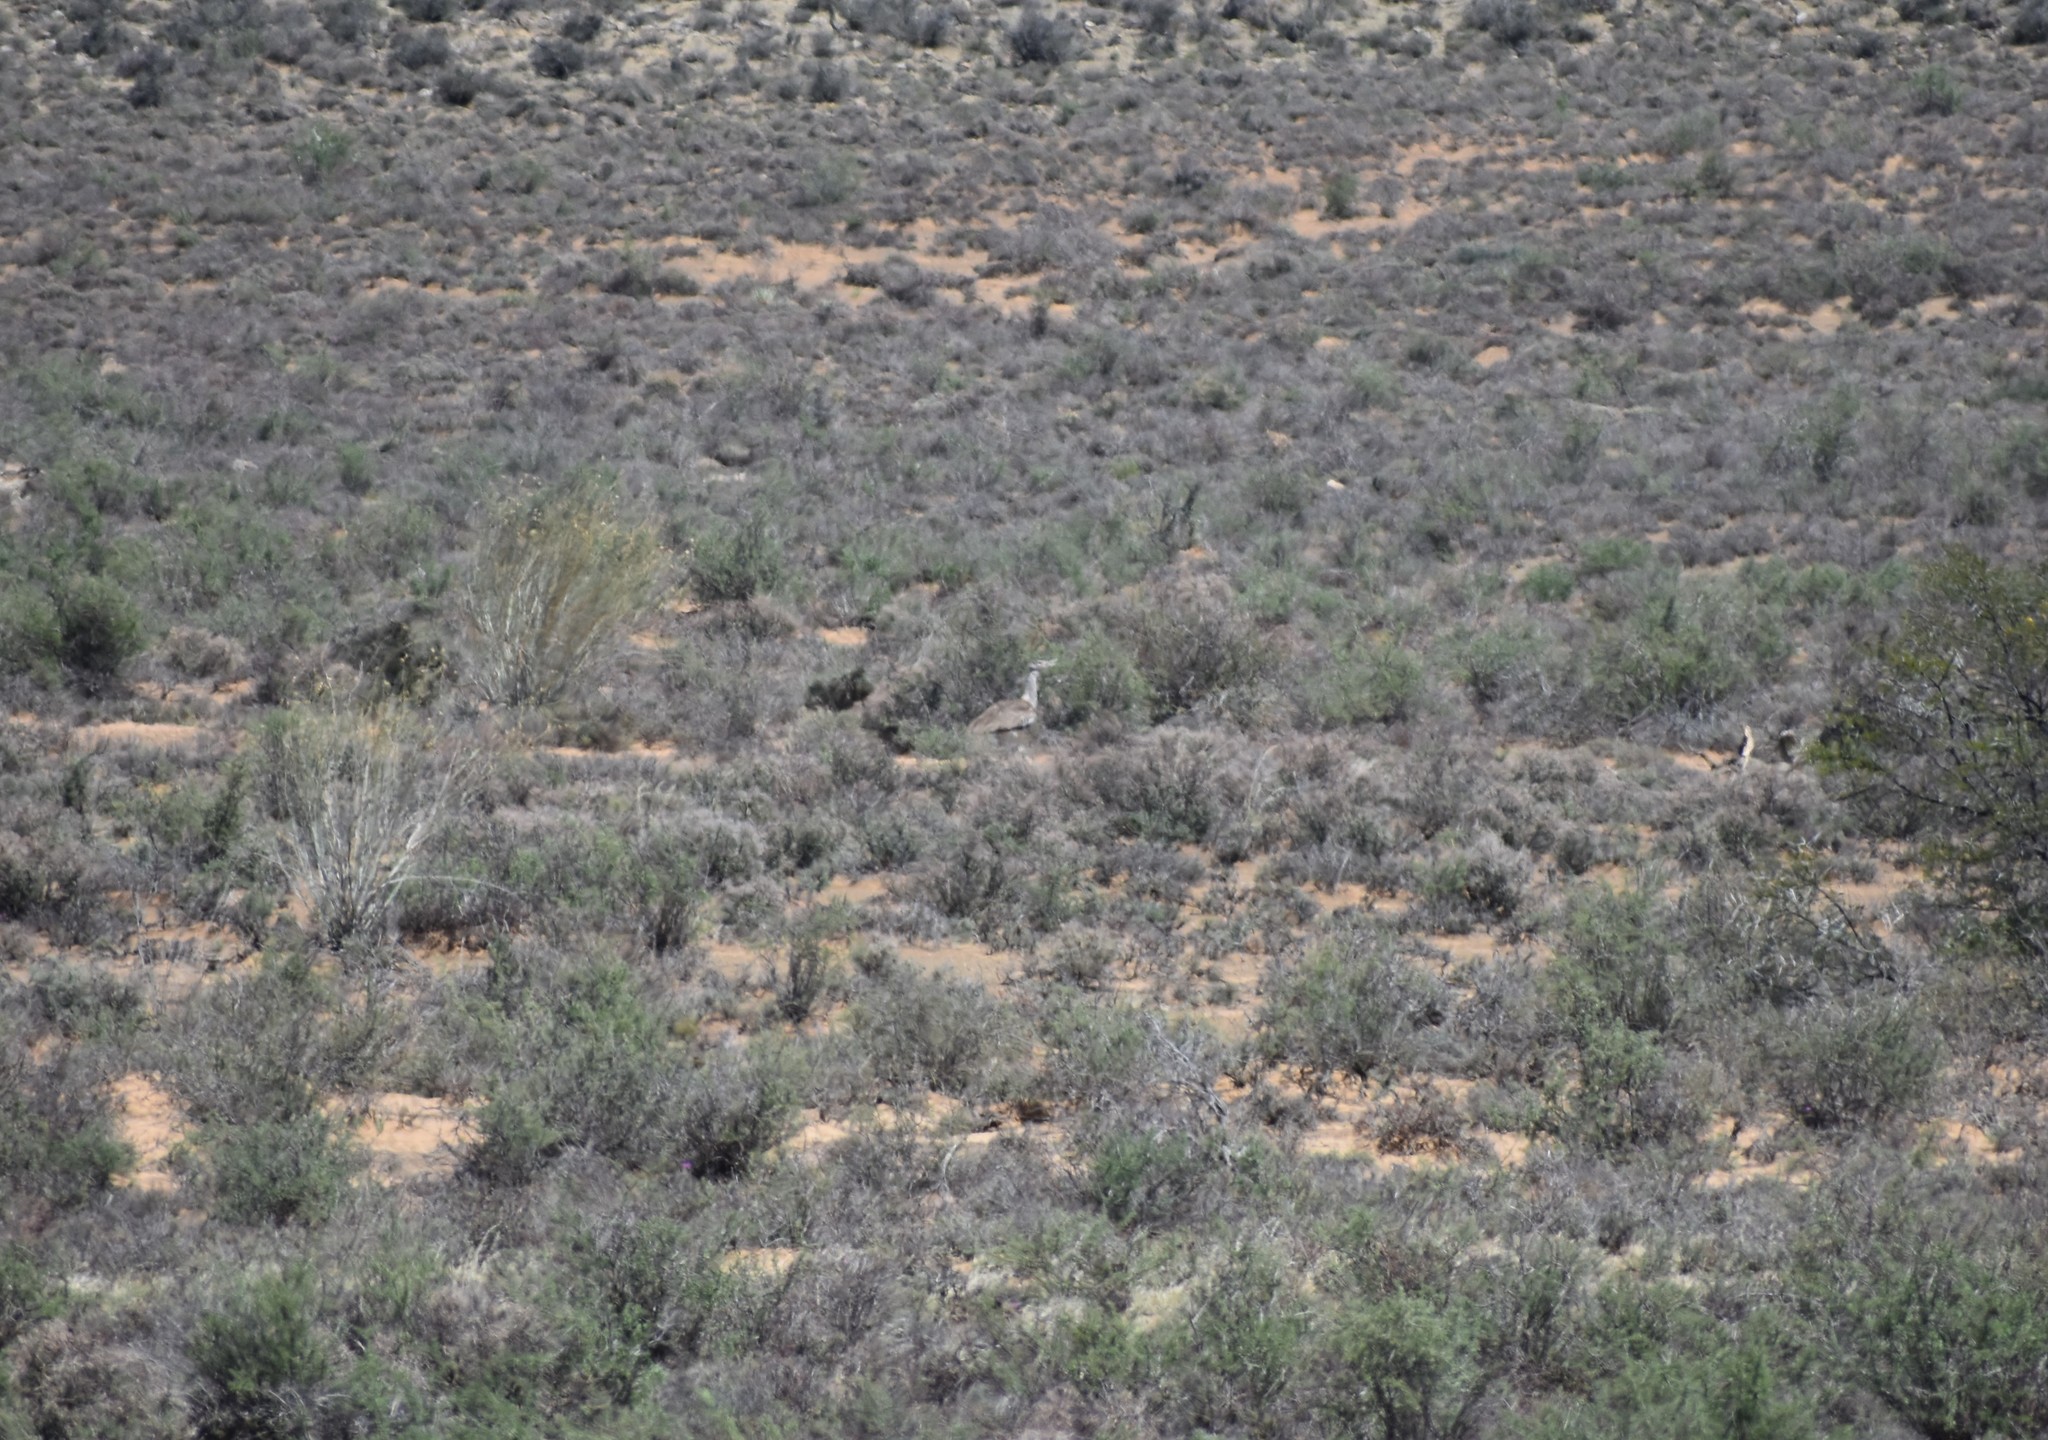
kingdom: Animalia
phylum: Chordata
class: Aves
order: Otidiformes
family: Otididae
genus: Ardeotis
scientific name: Ardeotis kori
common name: Kori bustard
